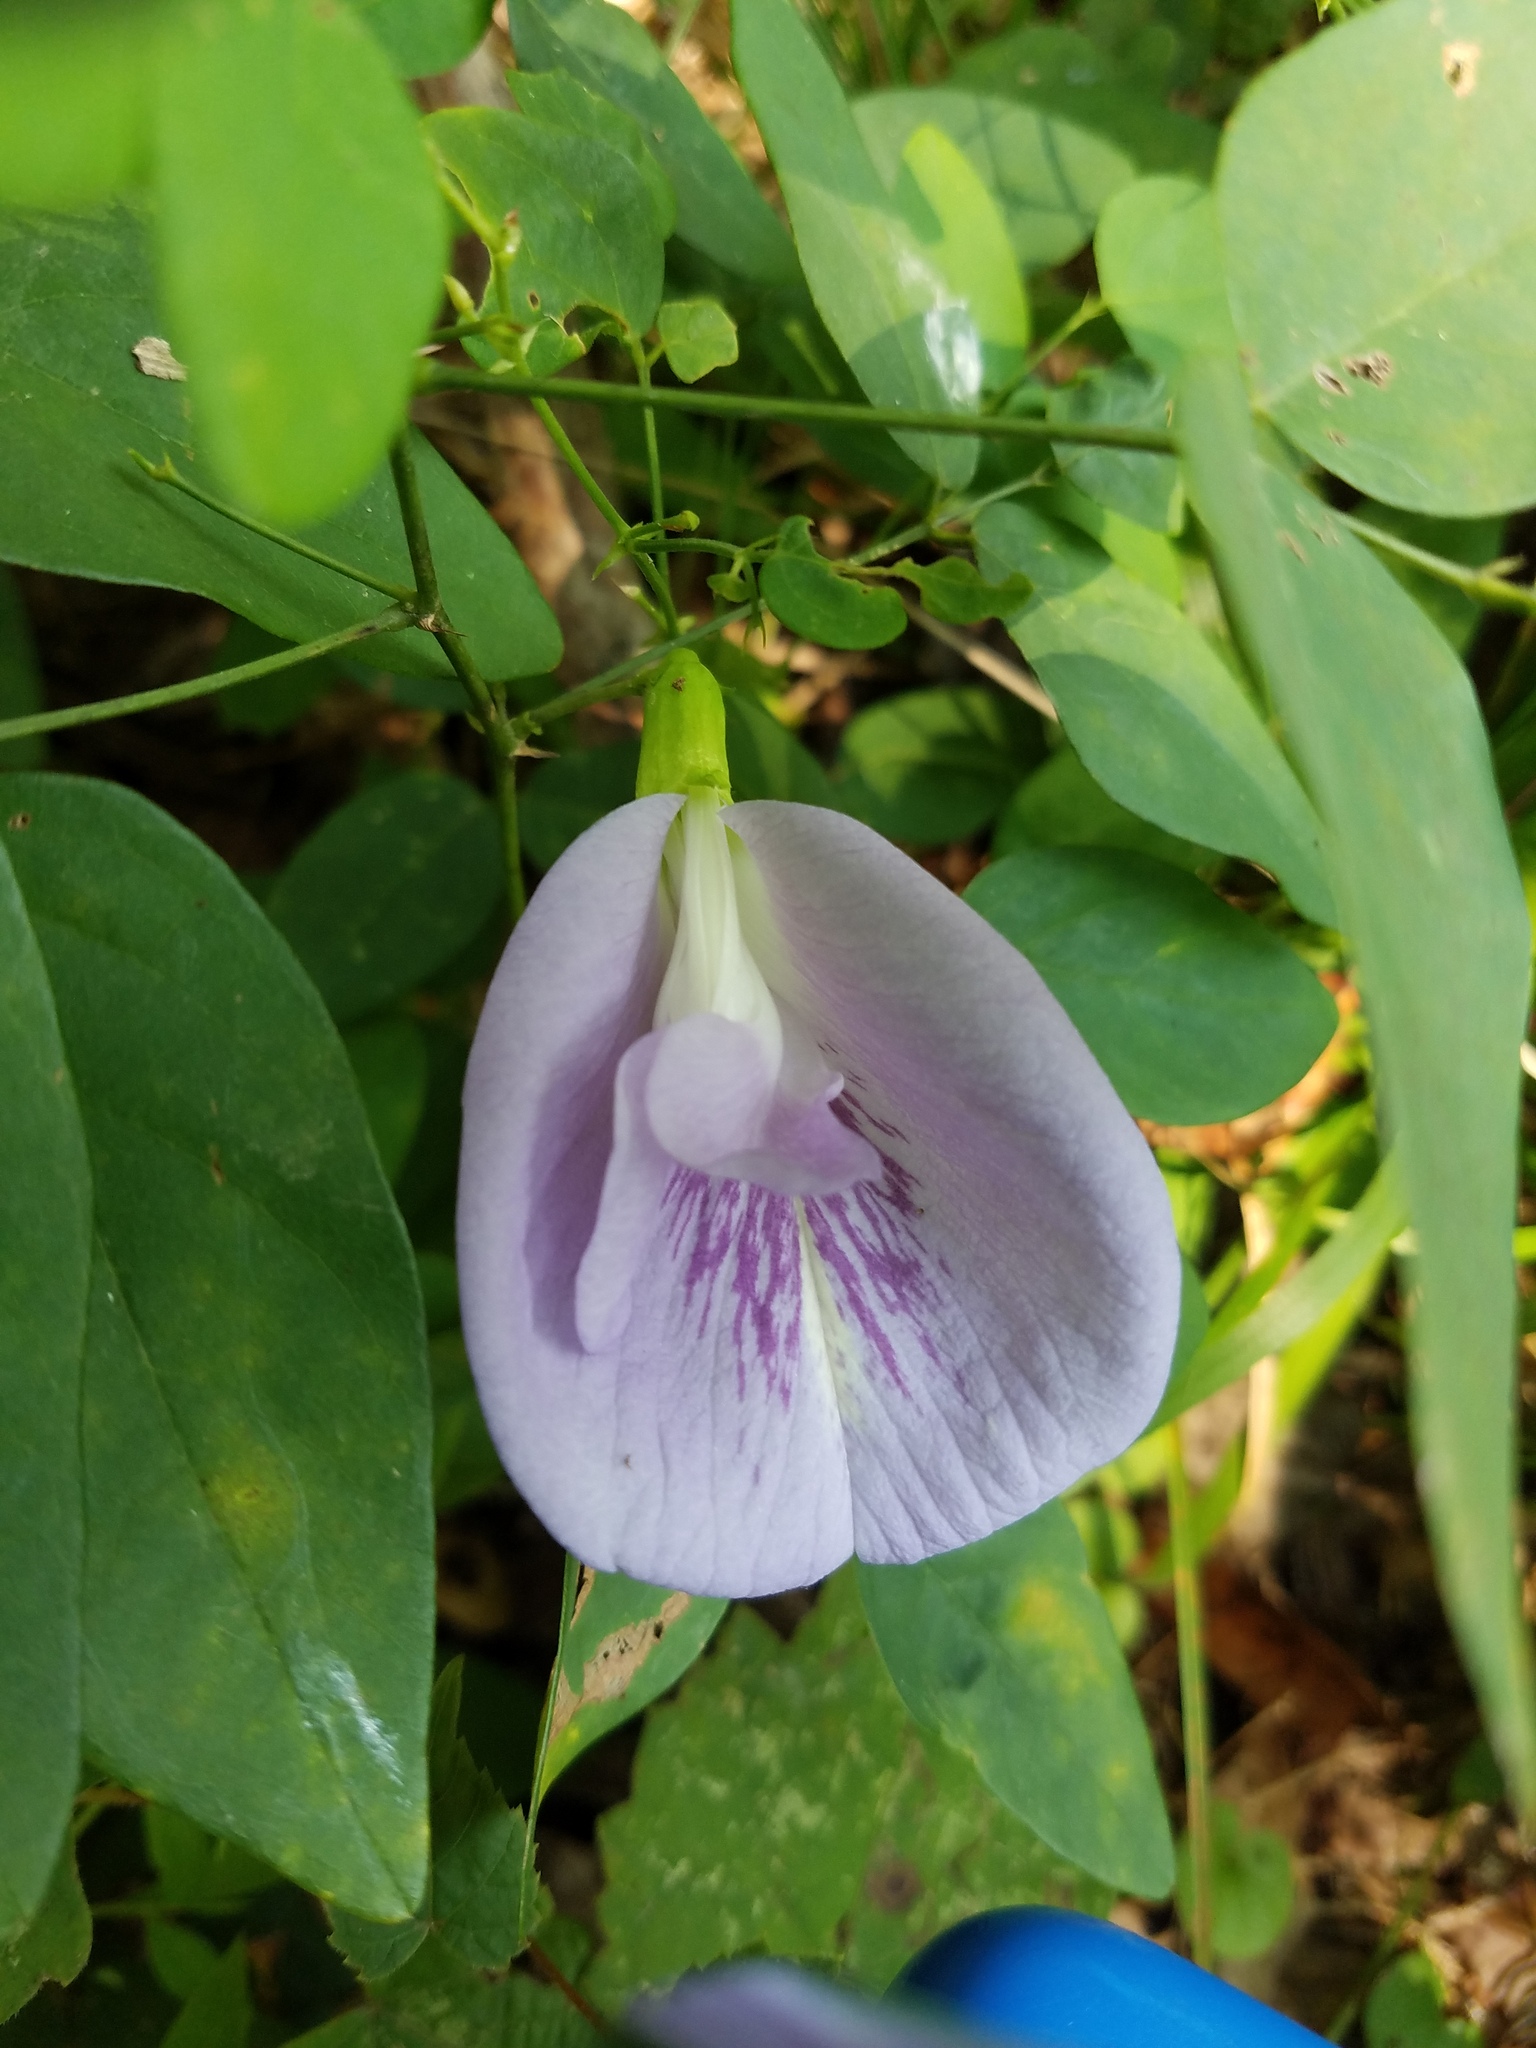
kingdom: Plantae
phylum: Tracheophyta
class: Magnoliopsida
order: Fabales
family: Fabaceae
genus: Clitoria
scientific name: Clitoria mariana
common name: Butterfly-pea
